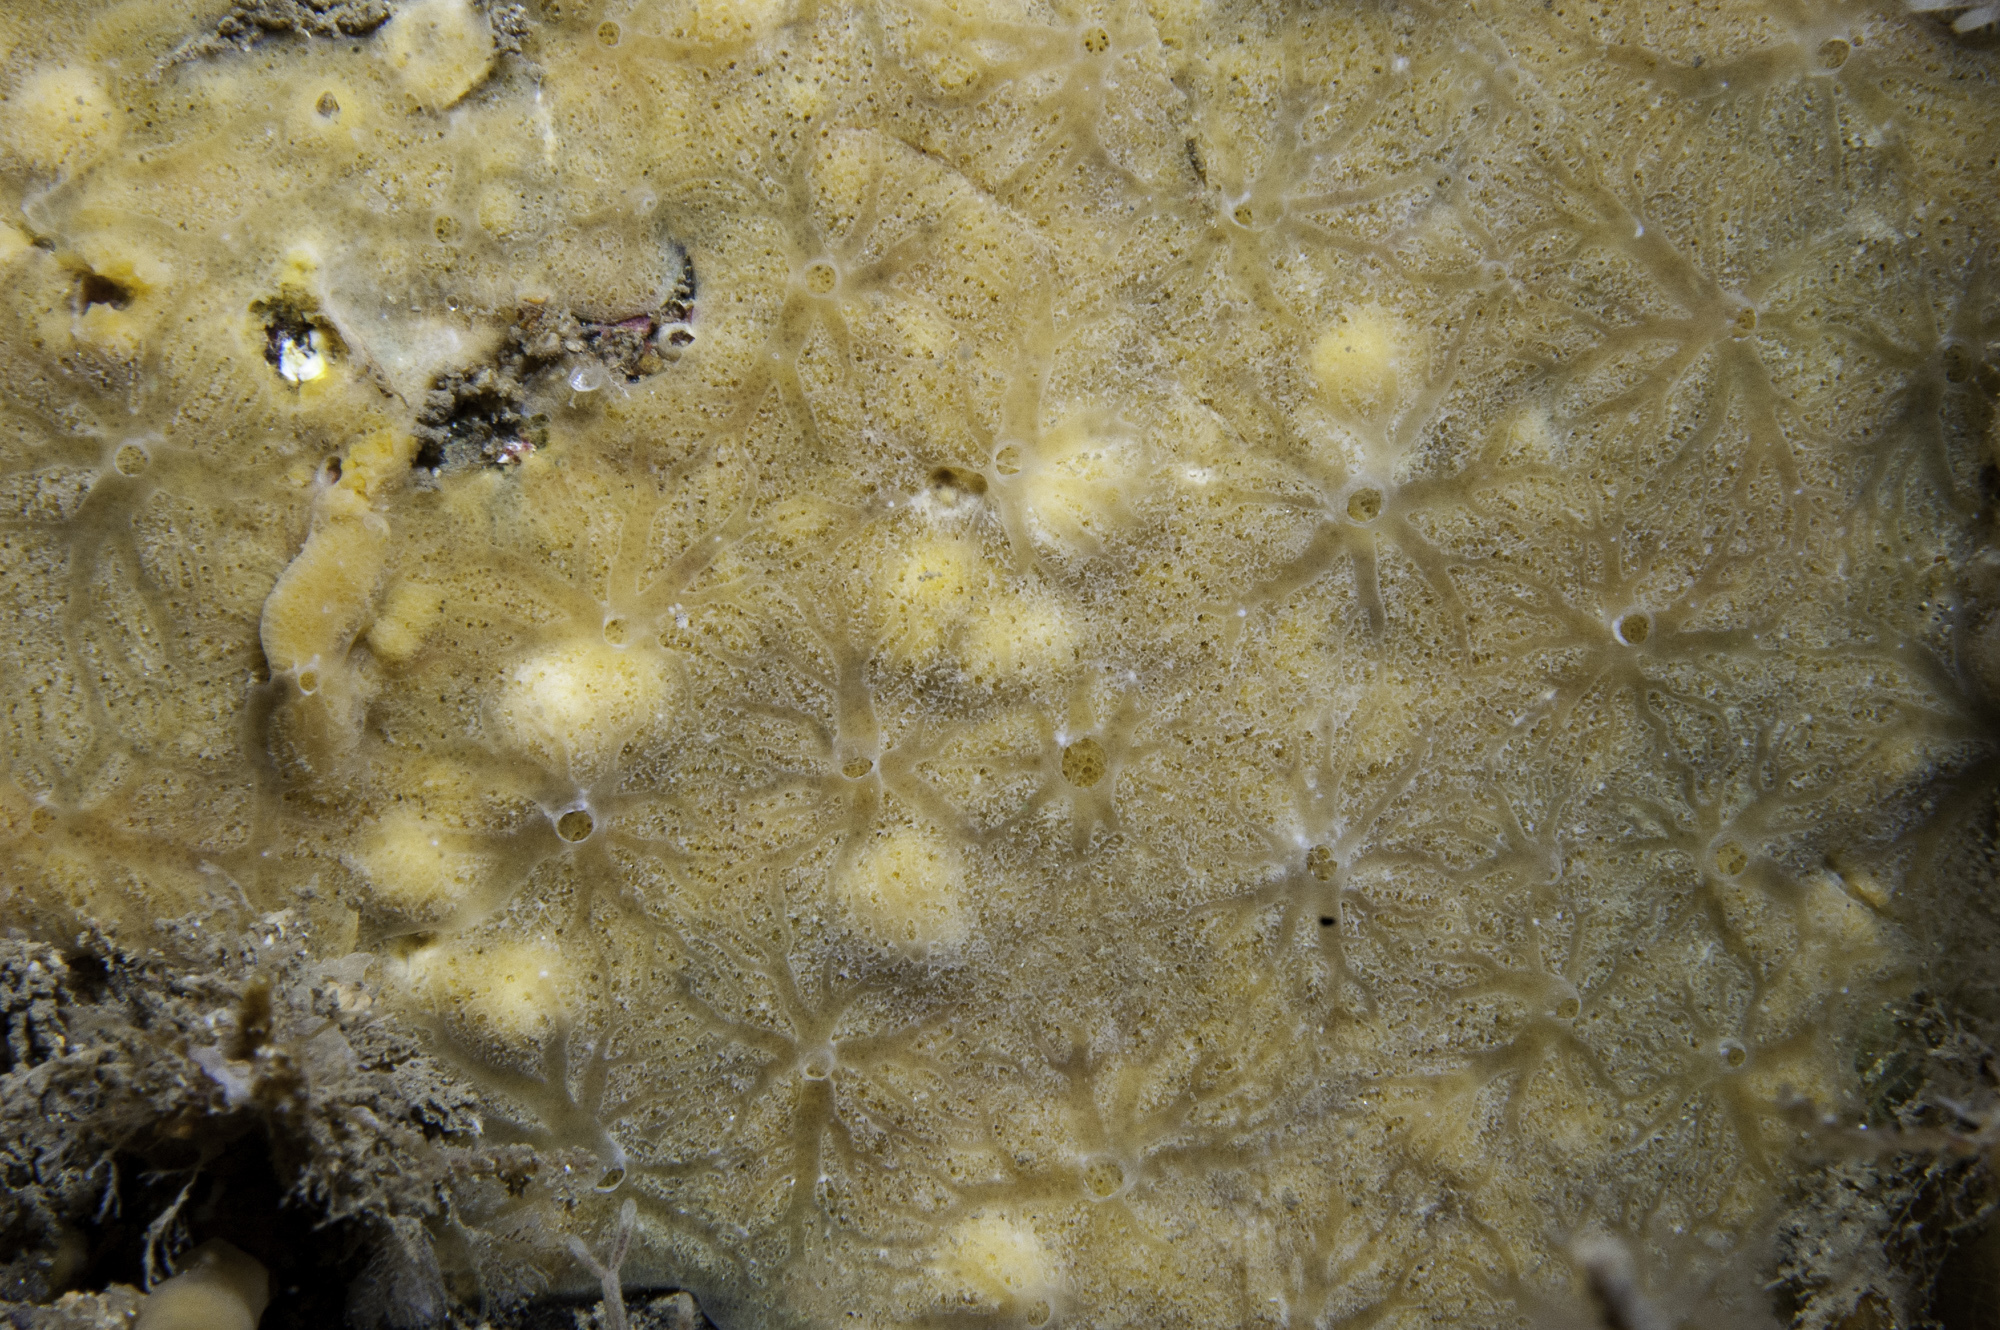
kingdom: Animalia
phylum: Porifera
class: Demospongiae
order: Poecilosclerida
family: Acarnidae
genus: Iophon
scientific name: Iophon hyndmani
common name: Hyndman's horny sponge
